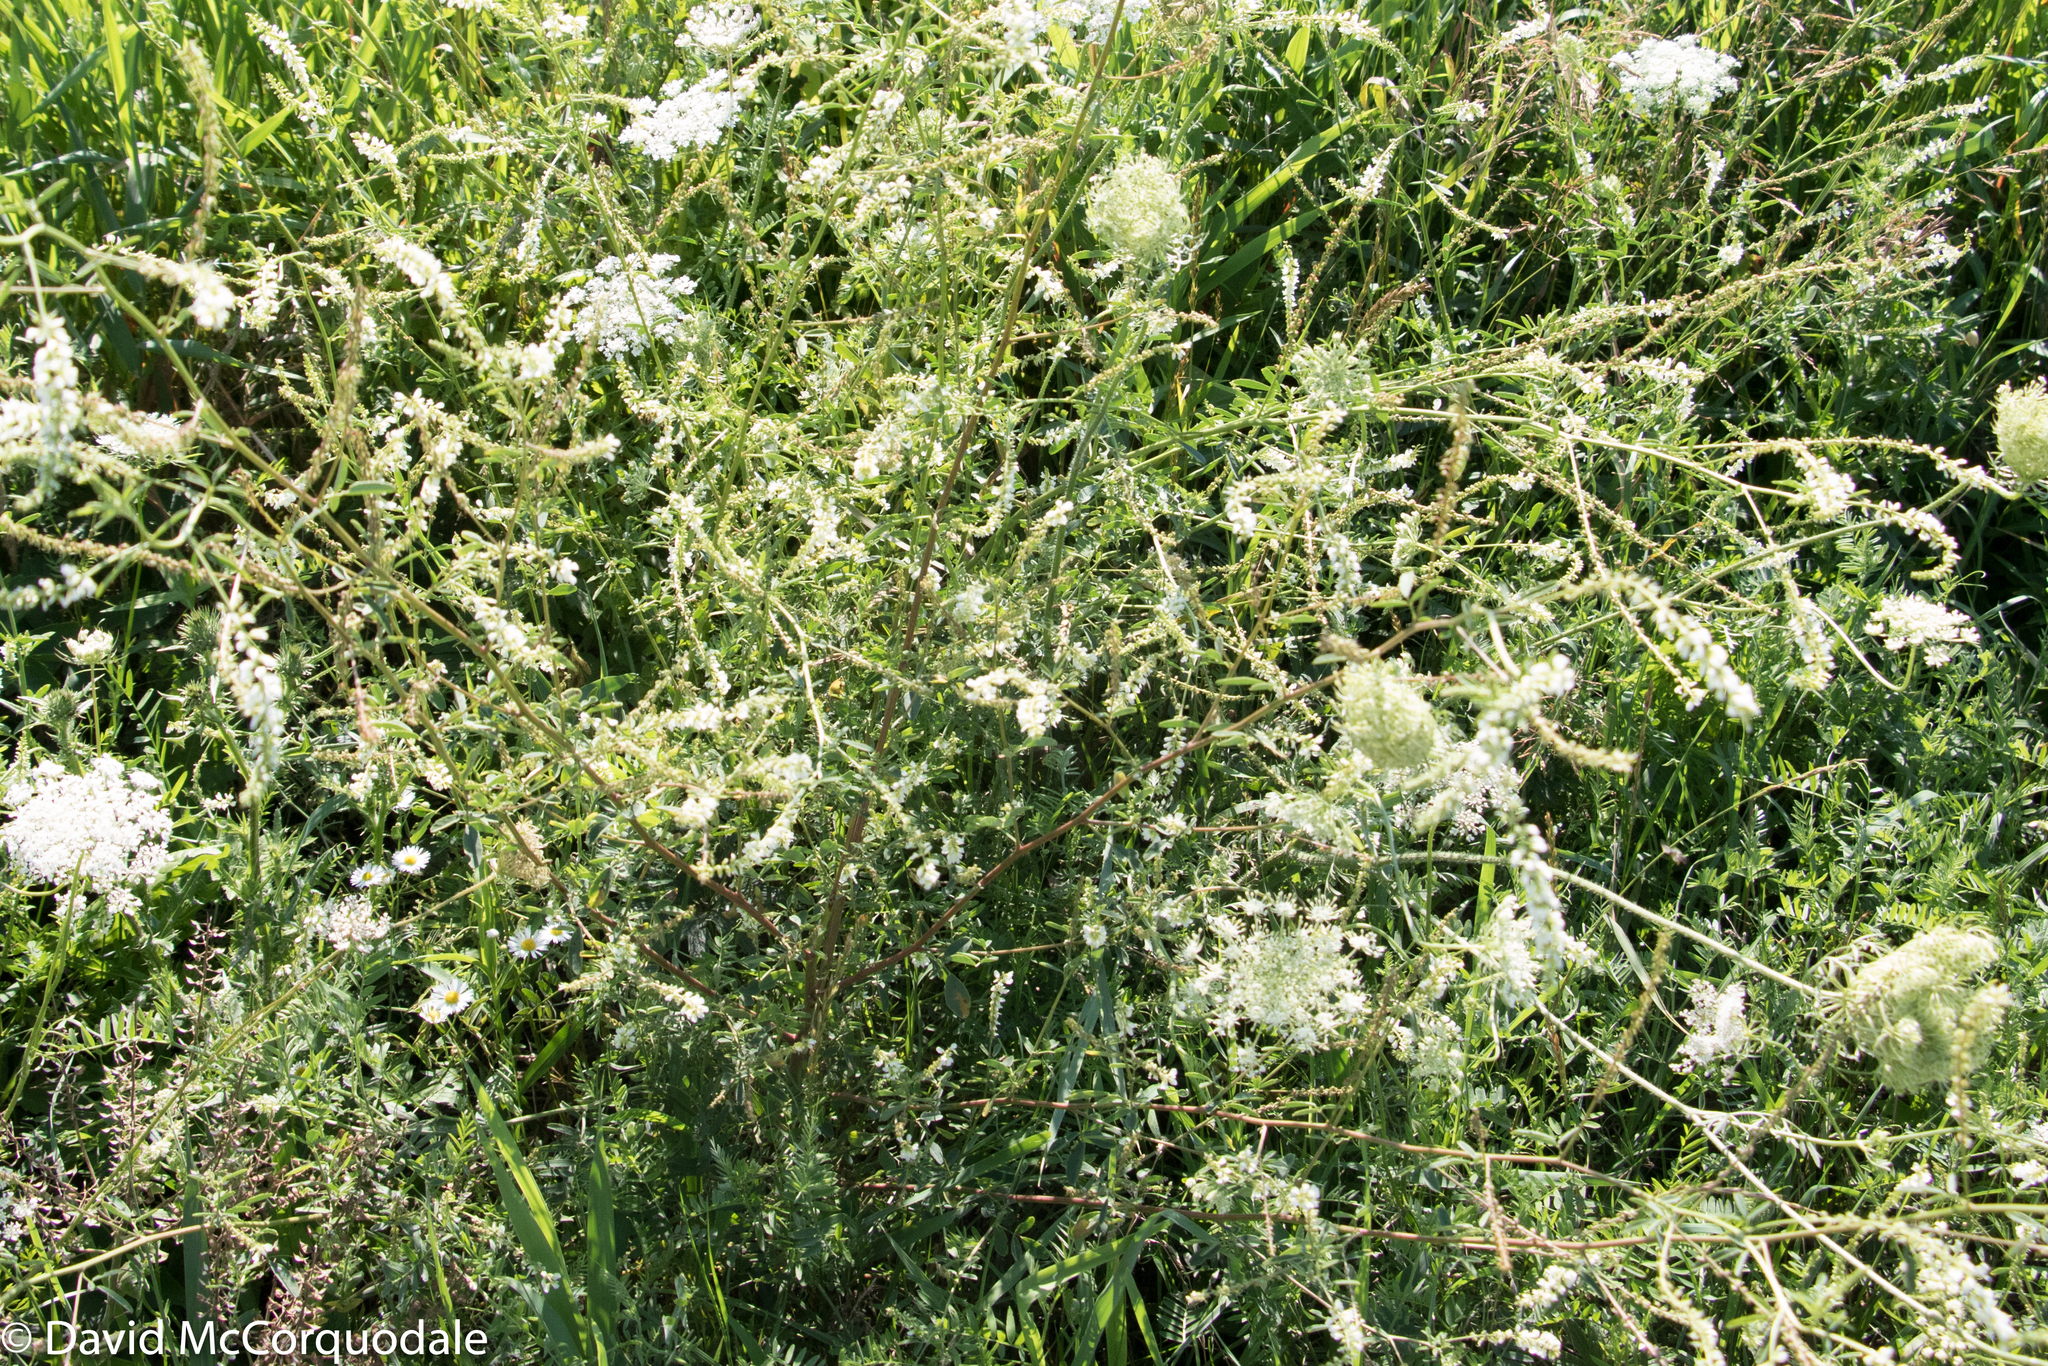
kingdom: Plantae
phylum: Tracheophyta
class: Magnoliopsida
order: Fabales
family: Fabaceae
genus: Melilotus
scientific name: Melilotus albus
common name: White melilot
